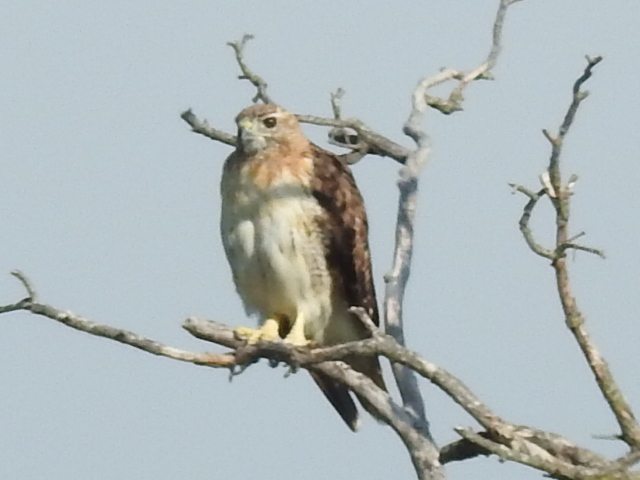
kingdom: Animalia
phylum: Chordata
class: Aves
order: Accipitriformes
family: Accipitridae
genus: Buteo
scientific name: Buteo jamaicensis
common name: Red-tailed hawk
